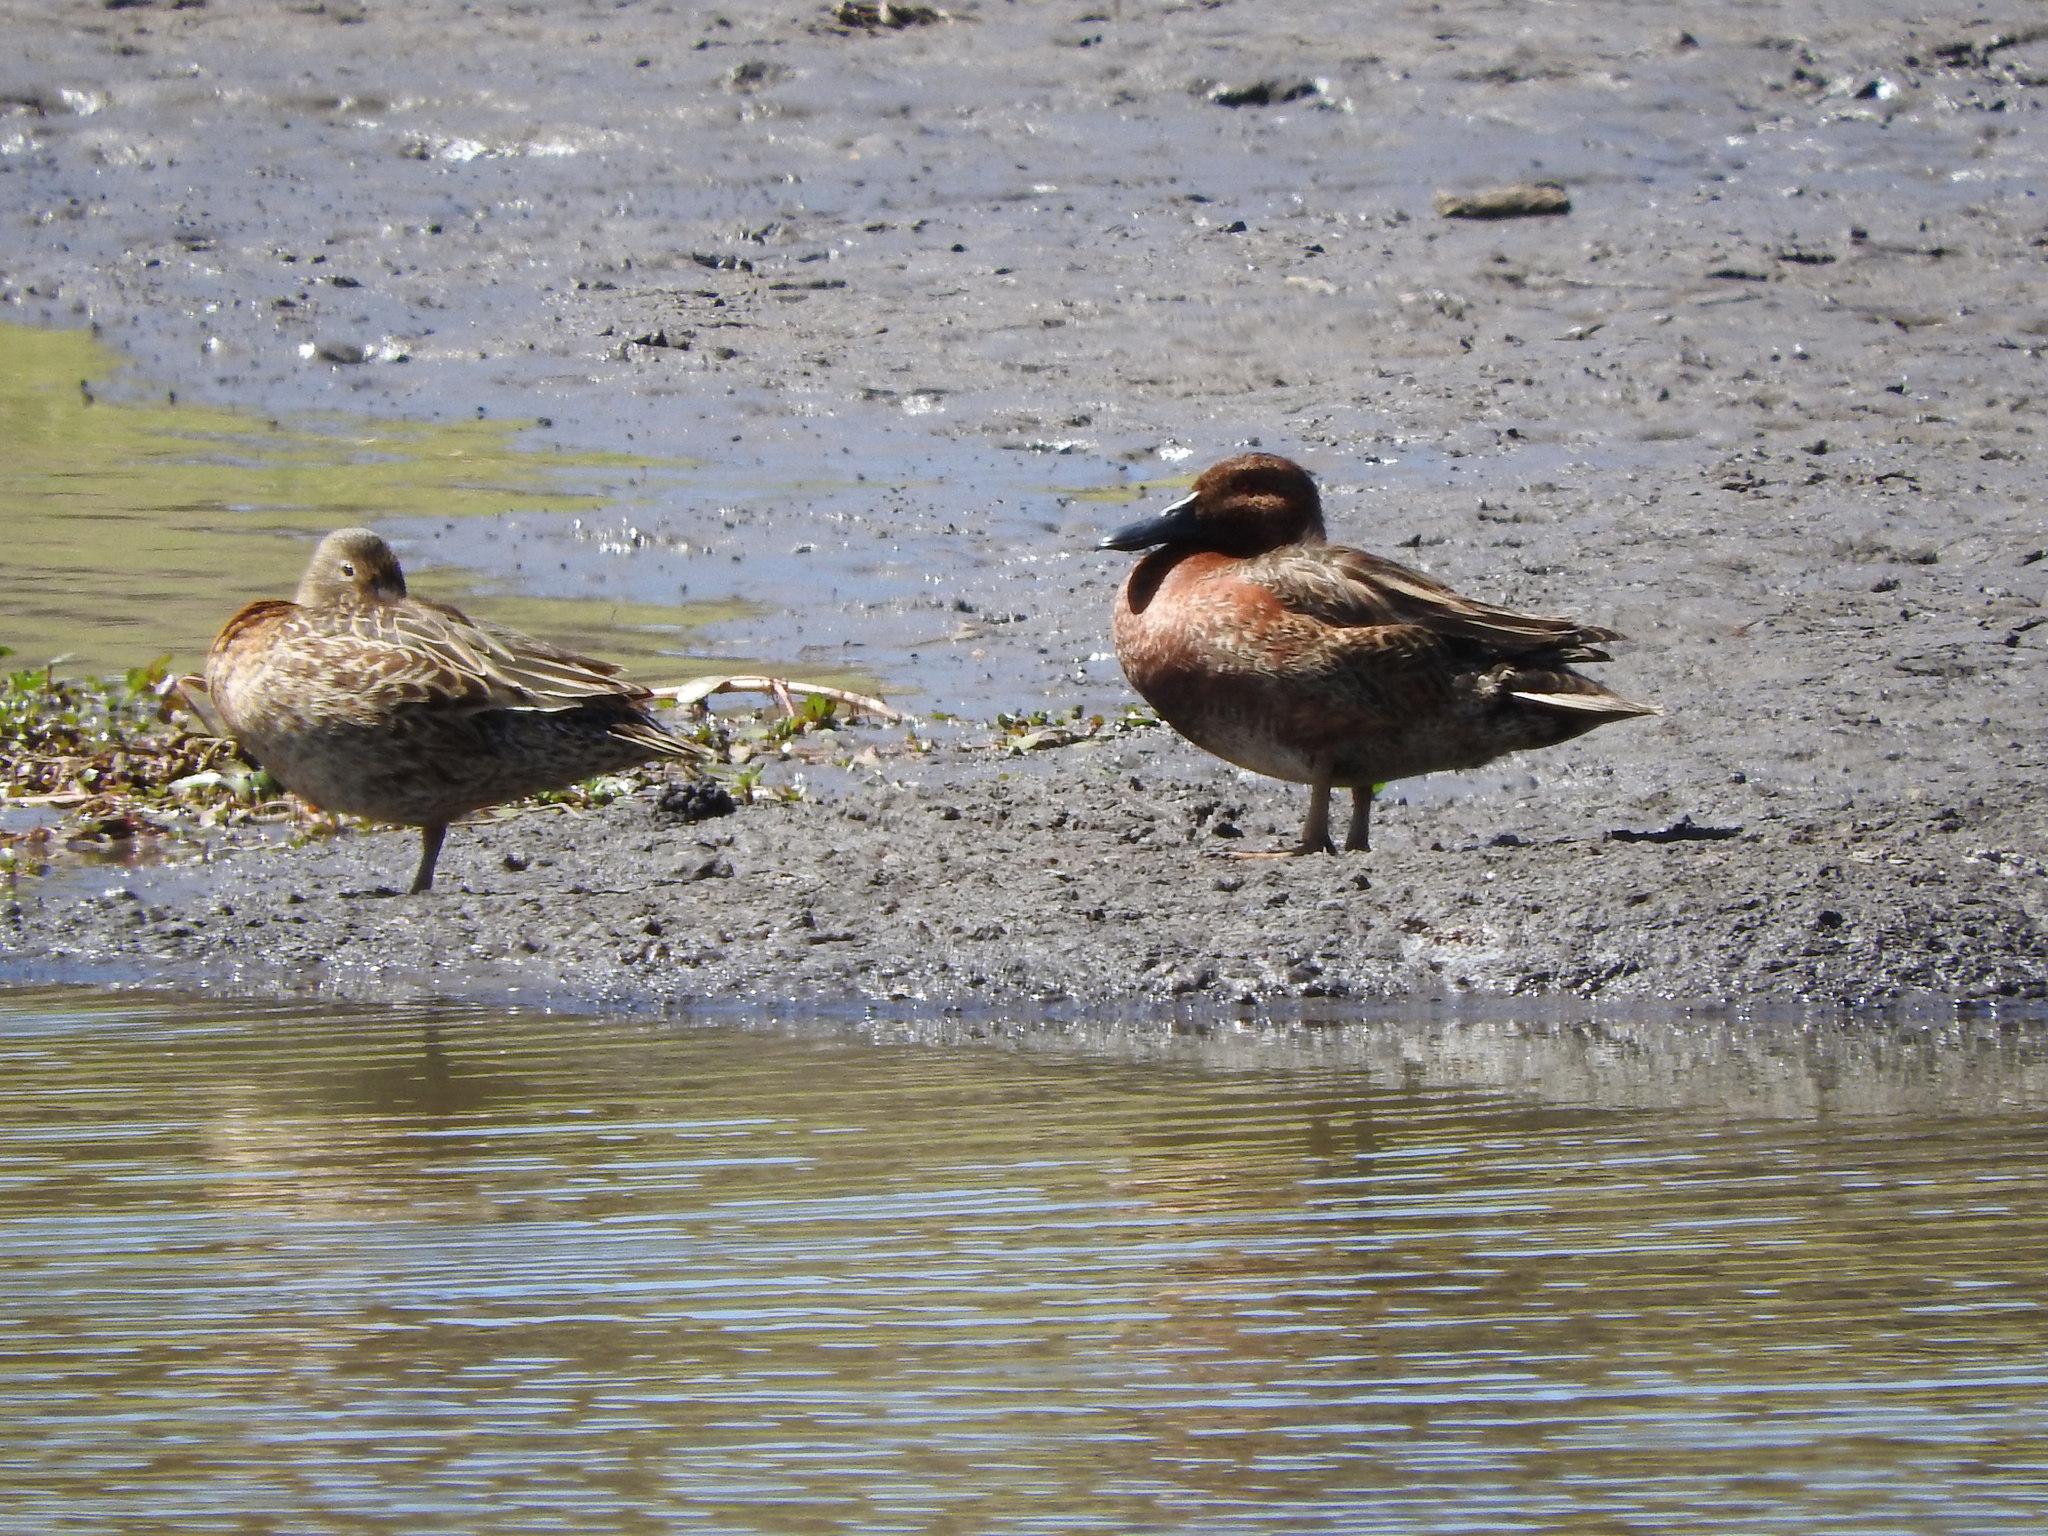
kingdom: Animalia
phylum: Chordata
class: Aves
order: Anseriformes
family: Anatidae
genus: Spatula
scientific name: Spatula cyanoptera
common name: Cinnamon teal
